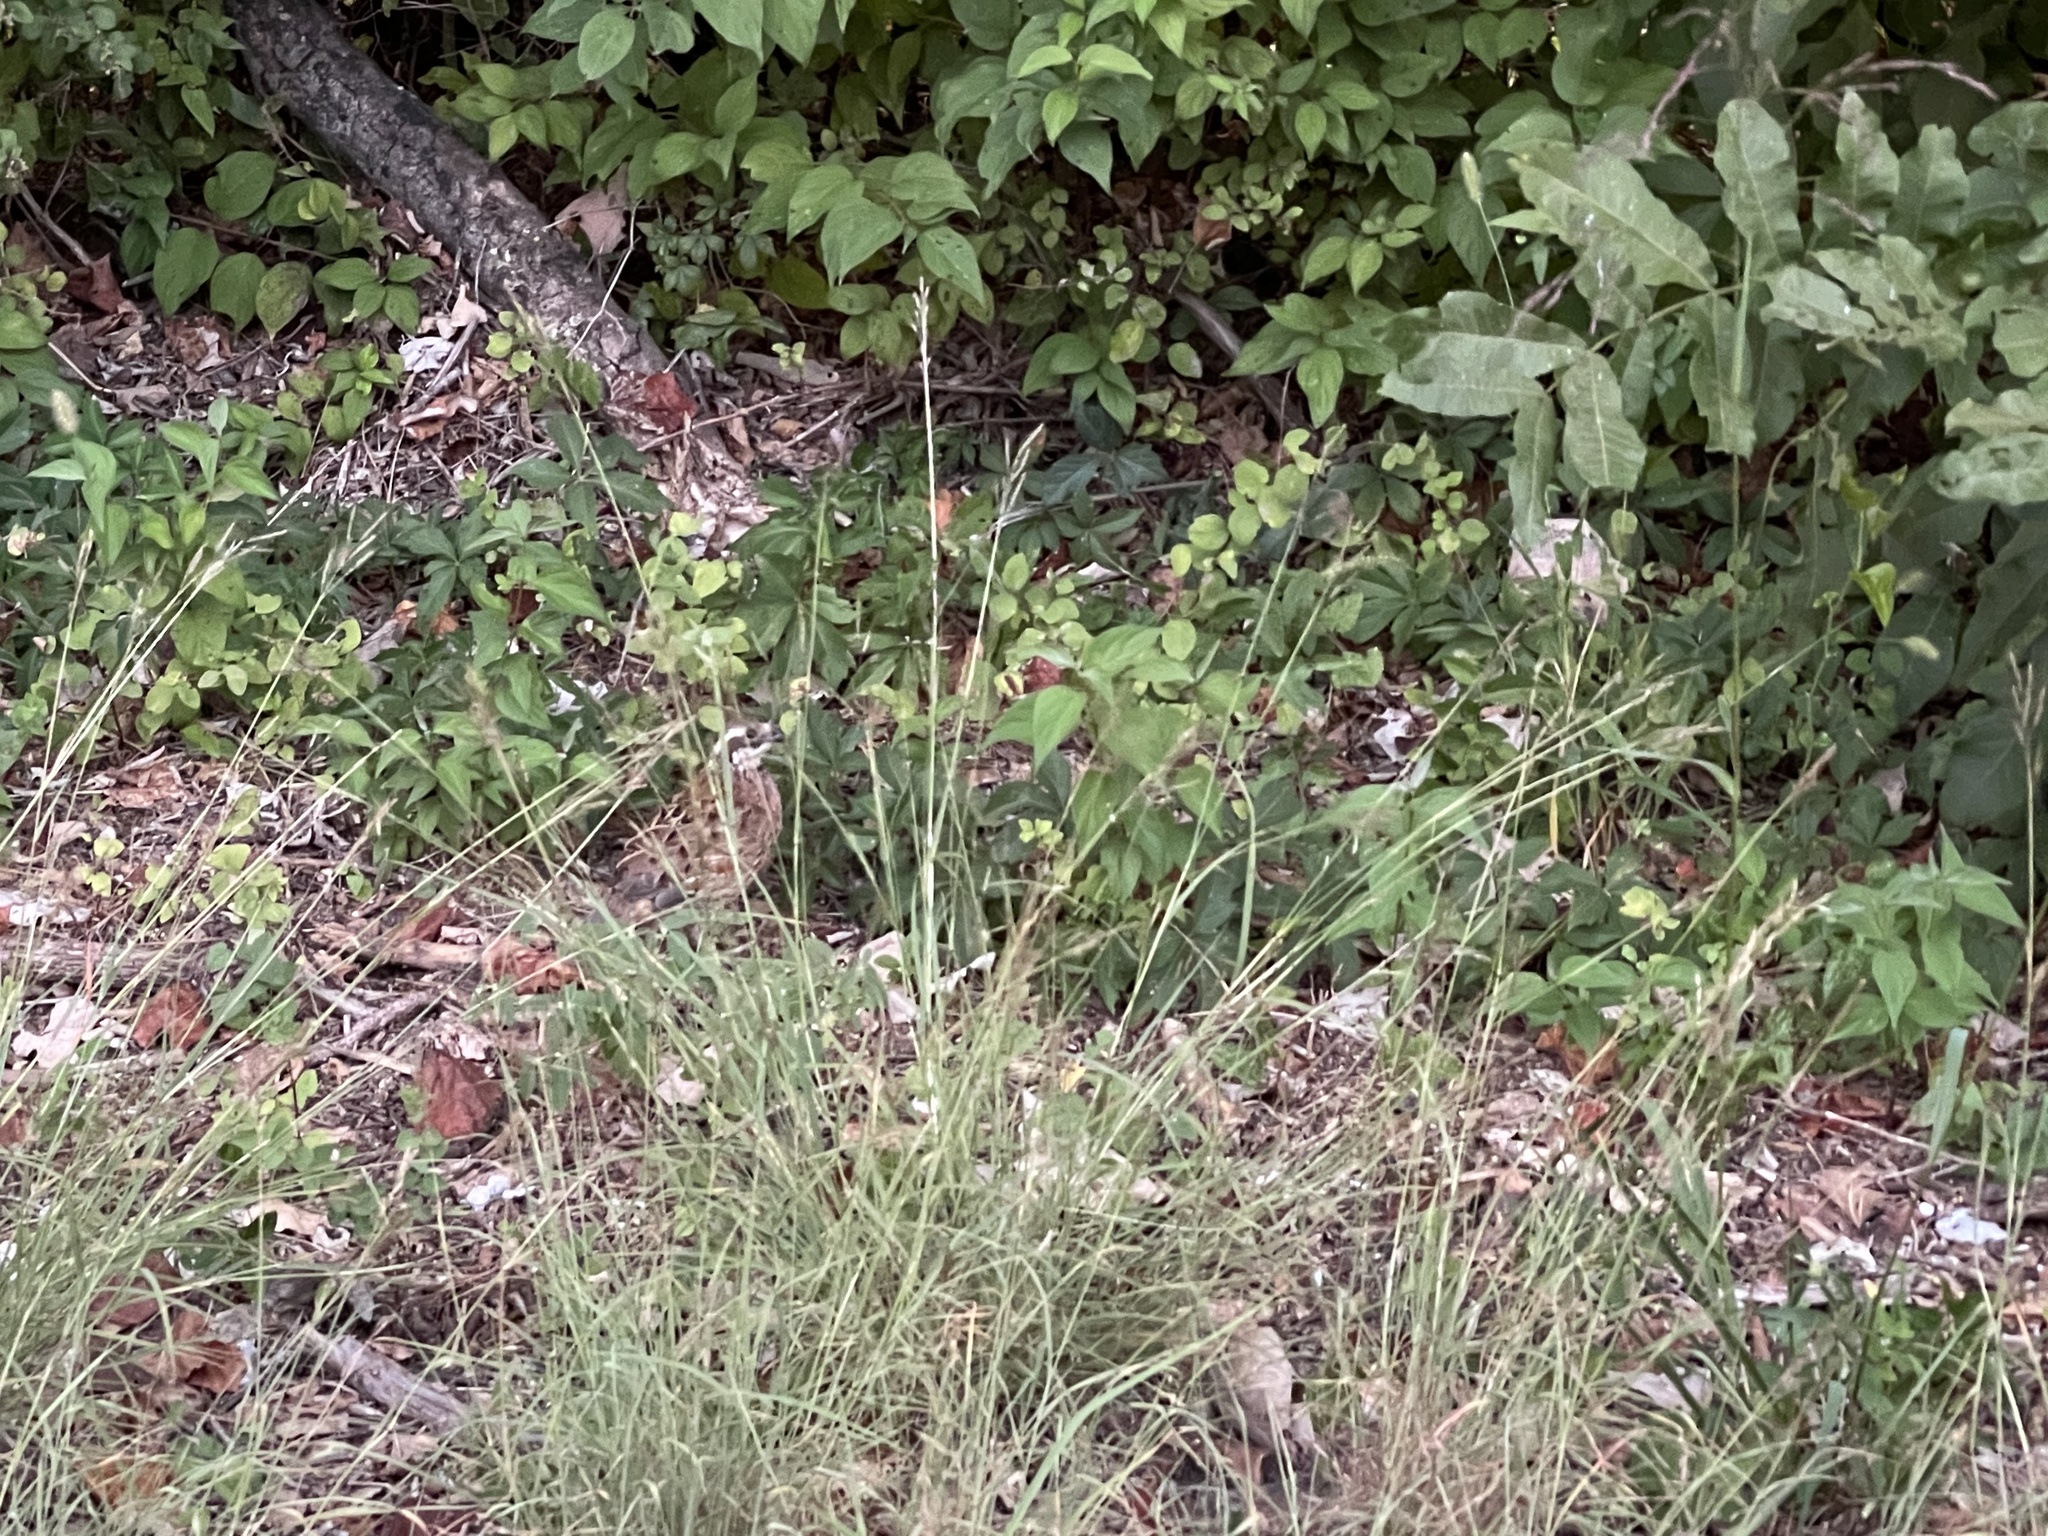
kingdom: Animalia
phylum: Chordata
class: Aves
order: Galliformes
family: Odontophoridae
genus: Colinus
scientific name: Colinus virginianus
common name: Northern bobwhite
